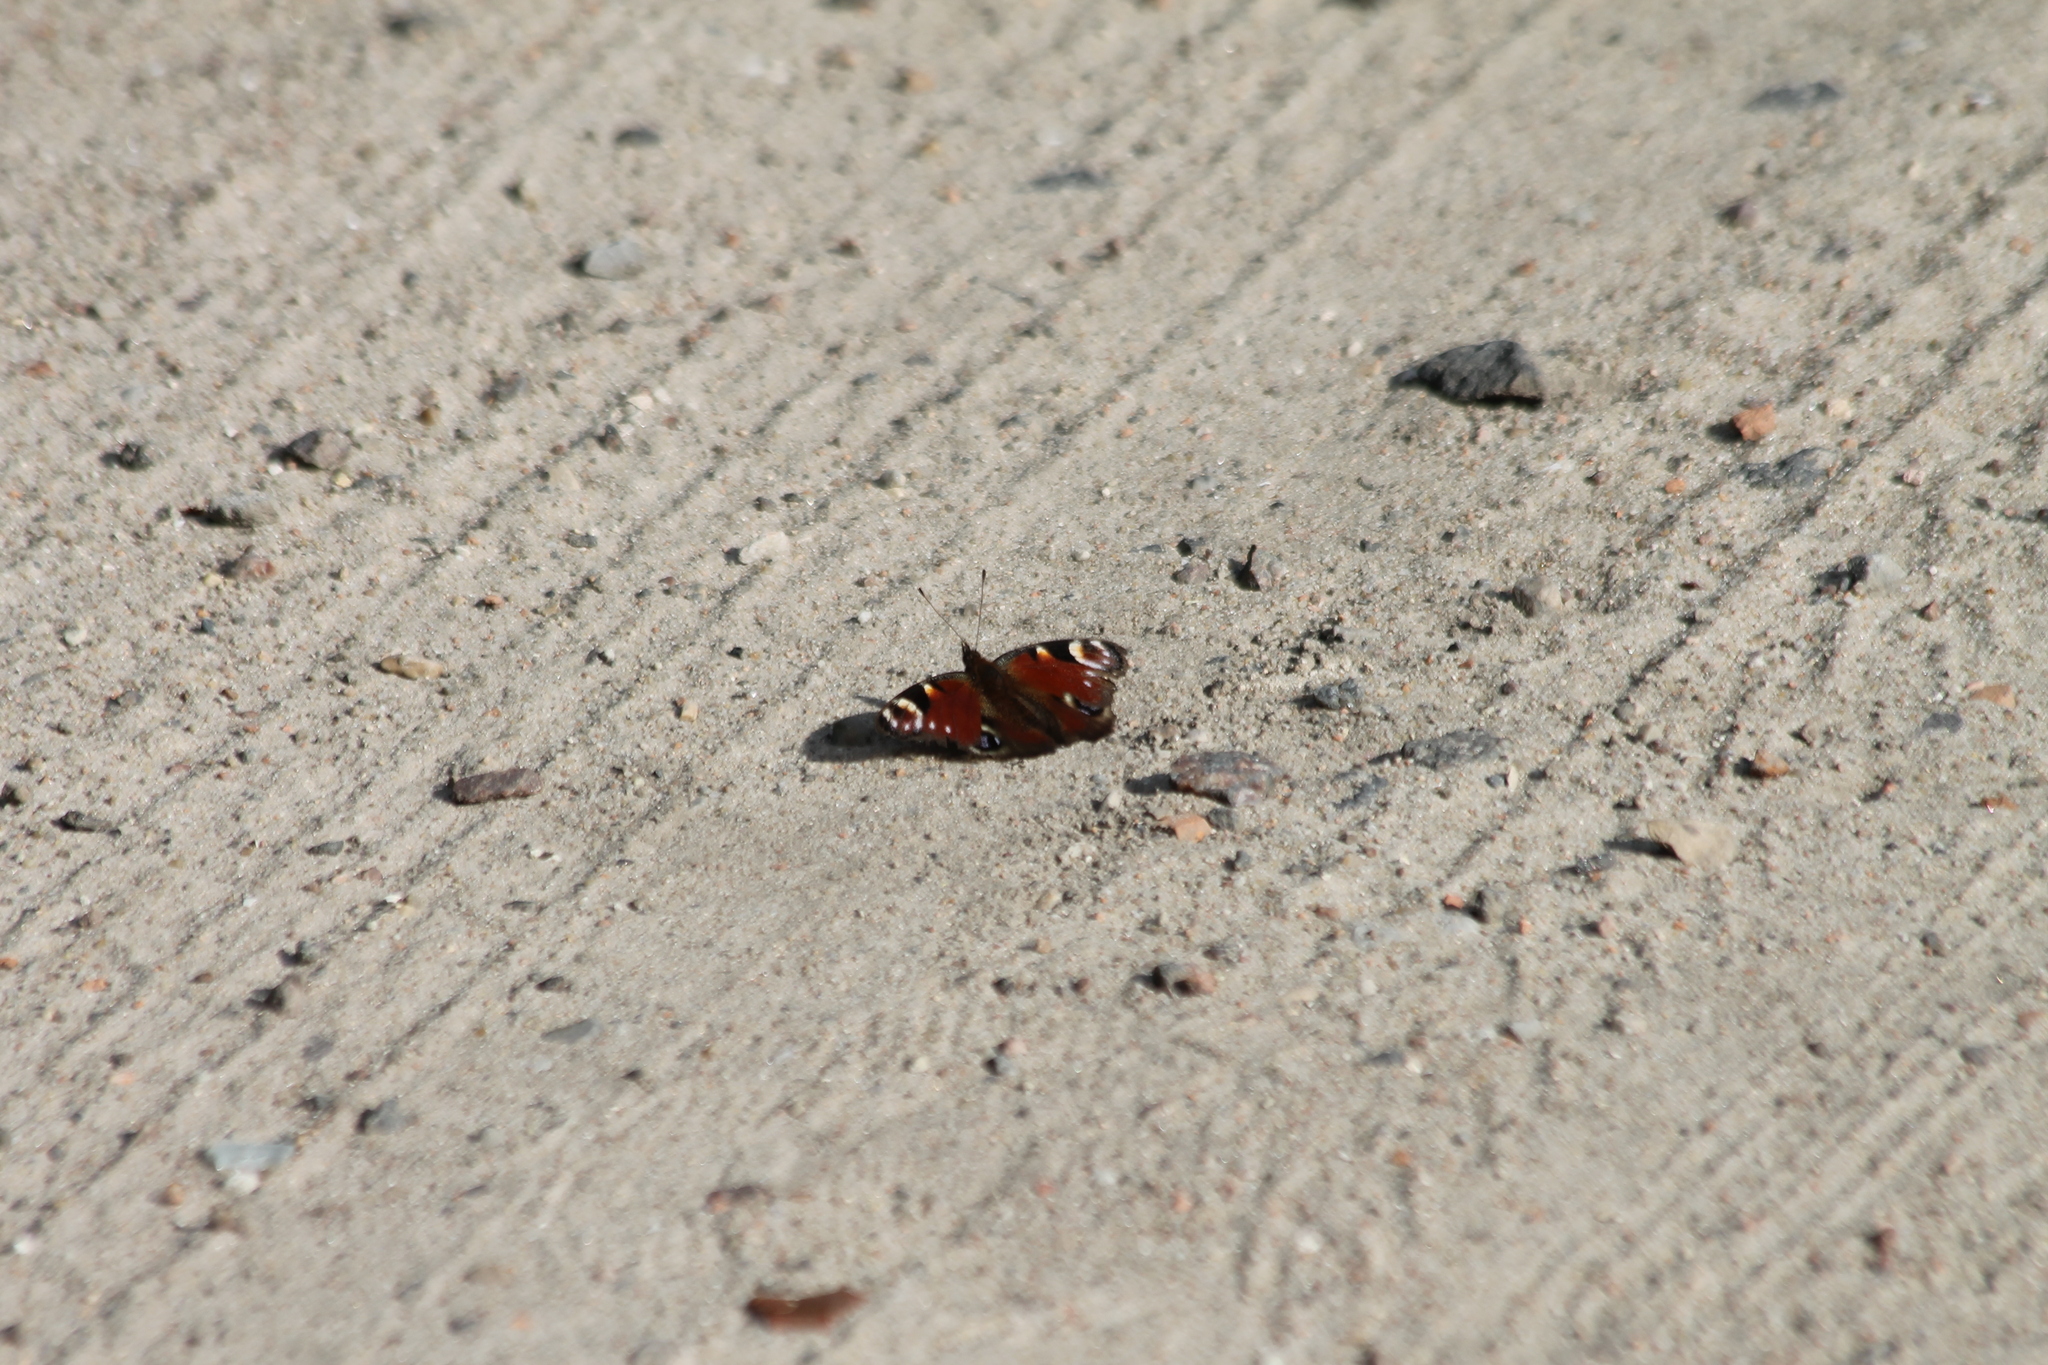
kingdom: Animalia
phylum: Arthropoda
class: Insecta
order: Lepidoptera
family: Nymphalidae
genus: Aglais
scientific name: Aglais io
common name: Peacock
